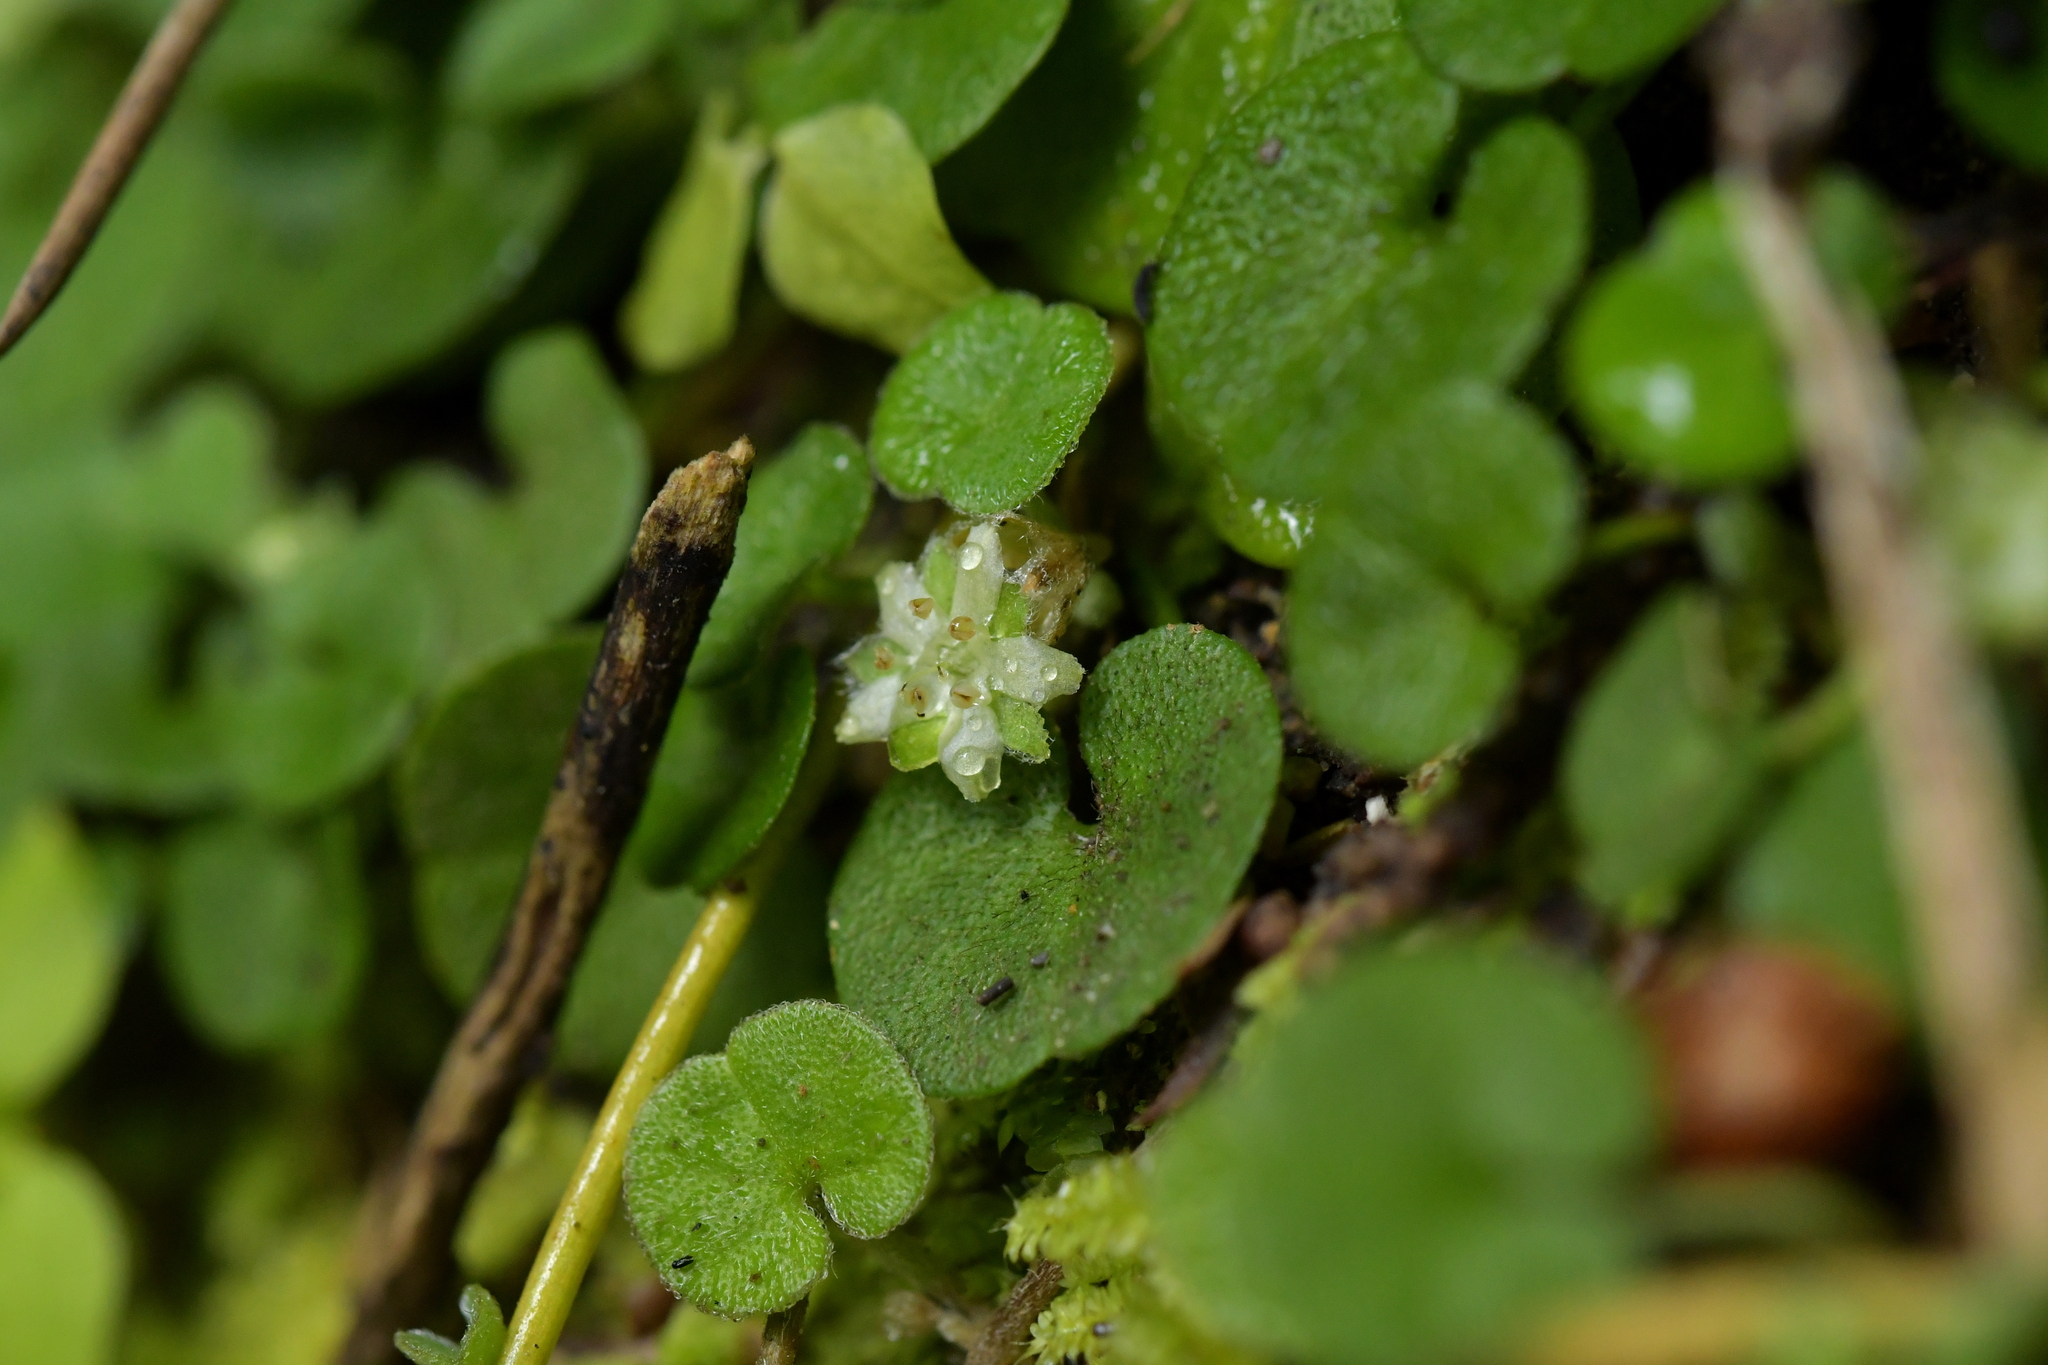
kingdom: Plantae
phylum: Tracheophyta
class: Magnoliopsida
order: Solanales
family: Convolvulaceae
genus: Dichondra
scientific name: Dichondra repens
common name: Kidneyweed
